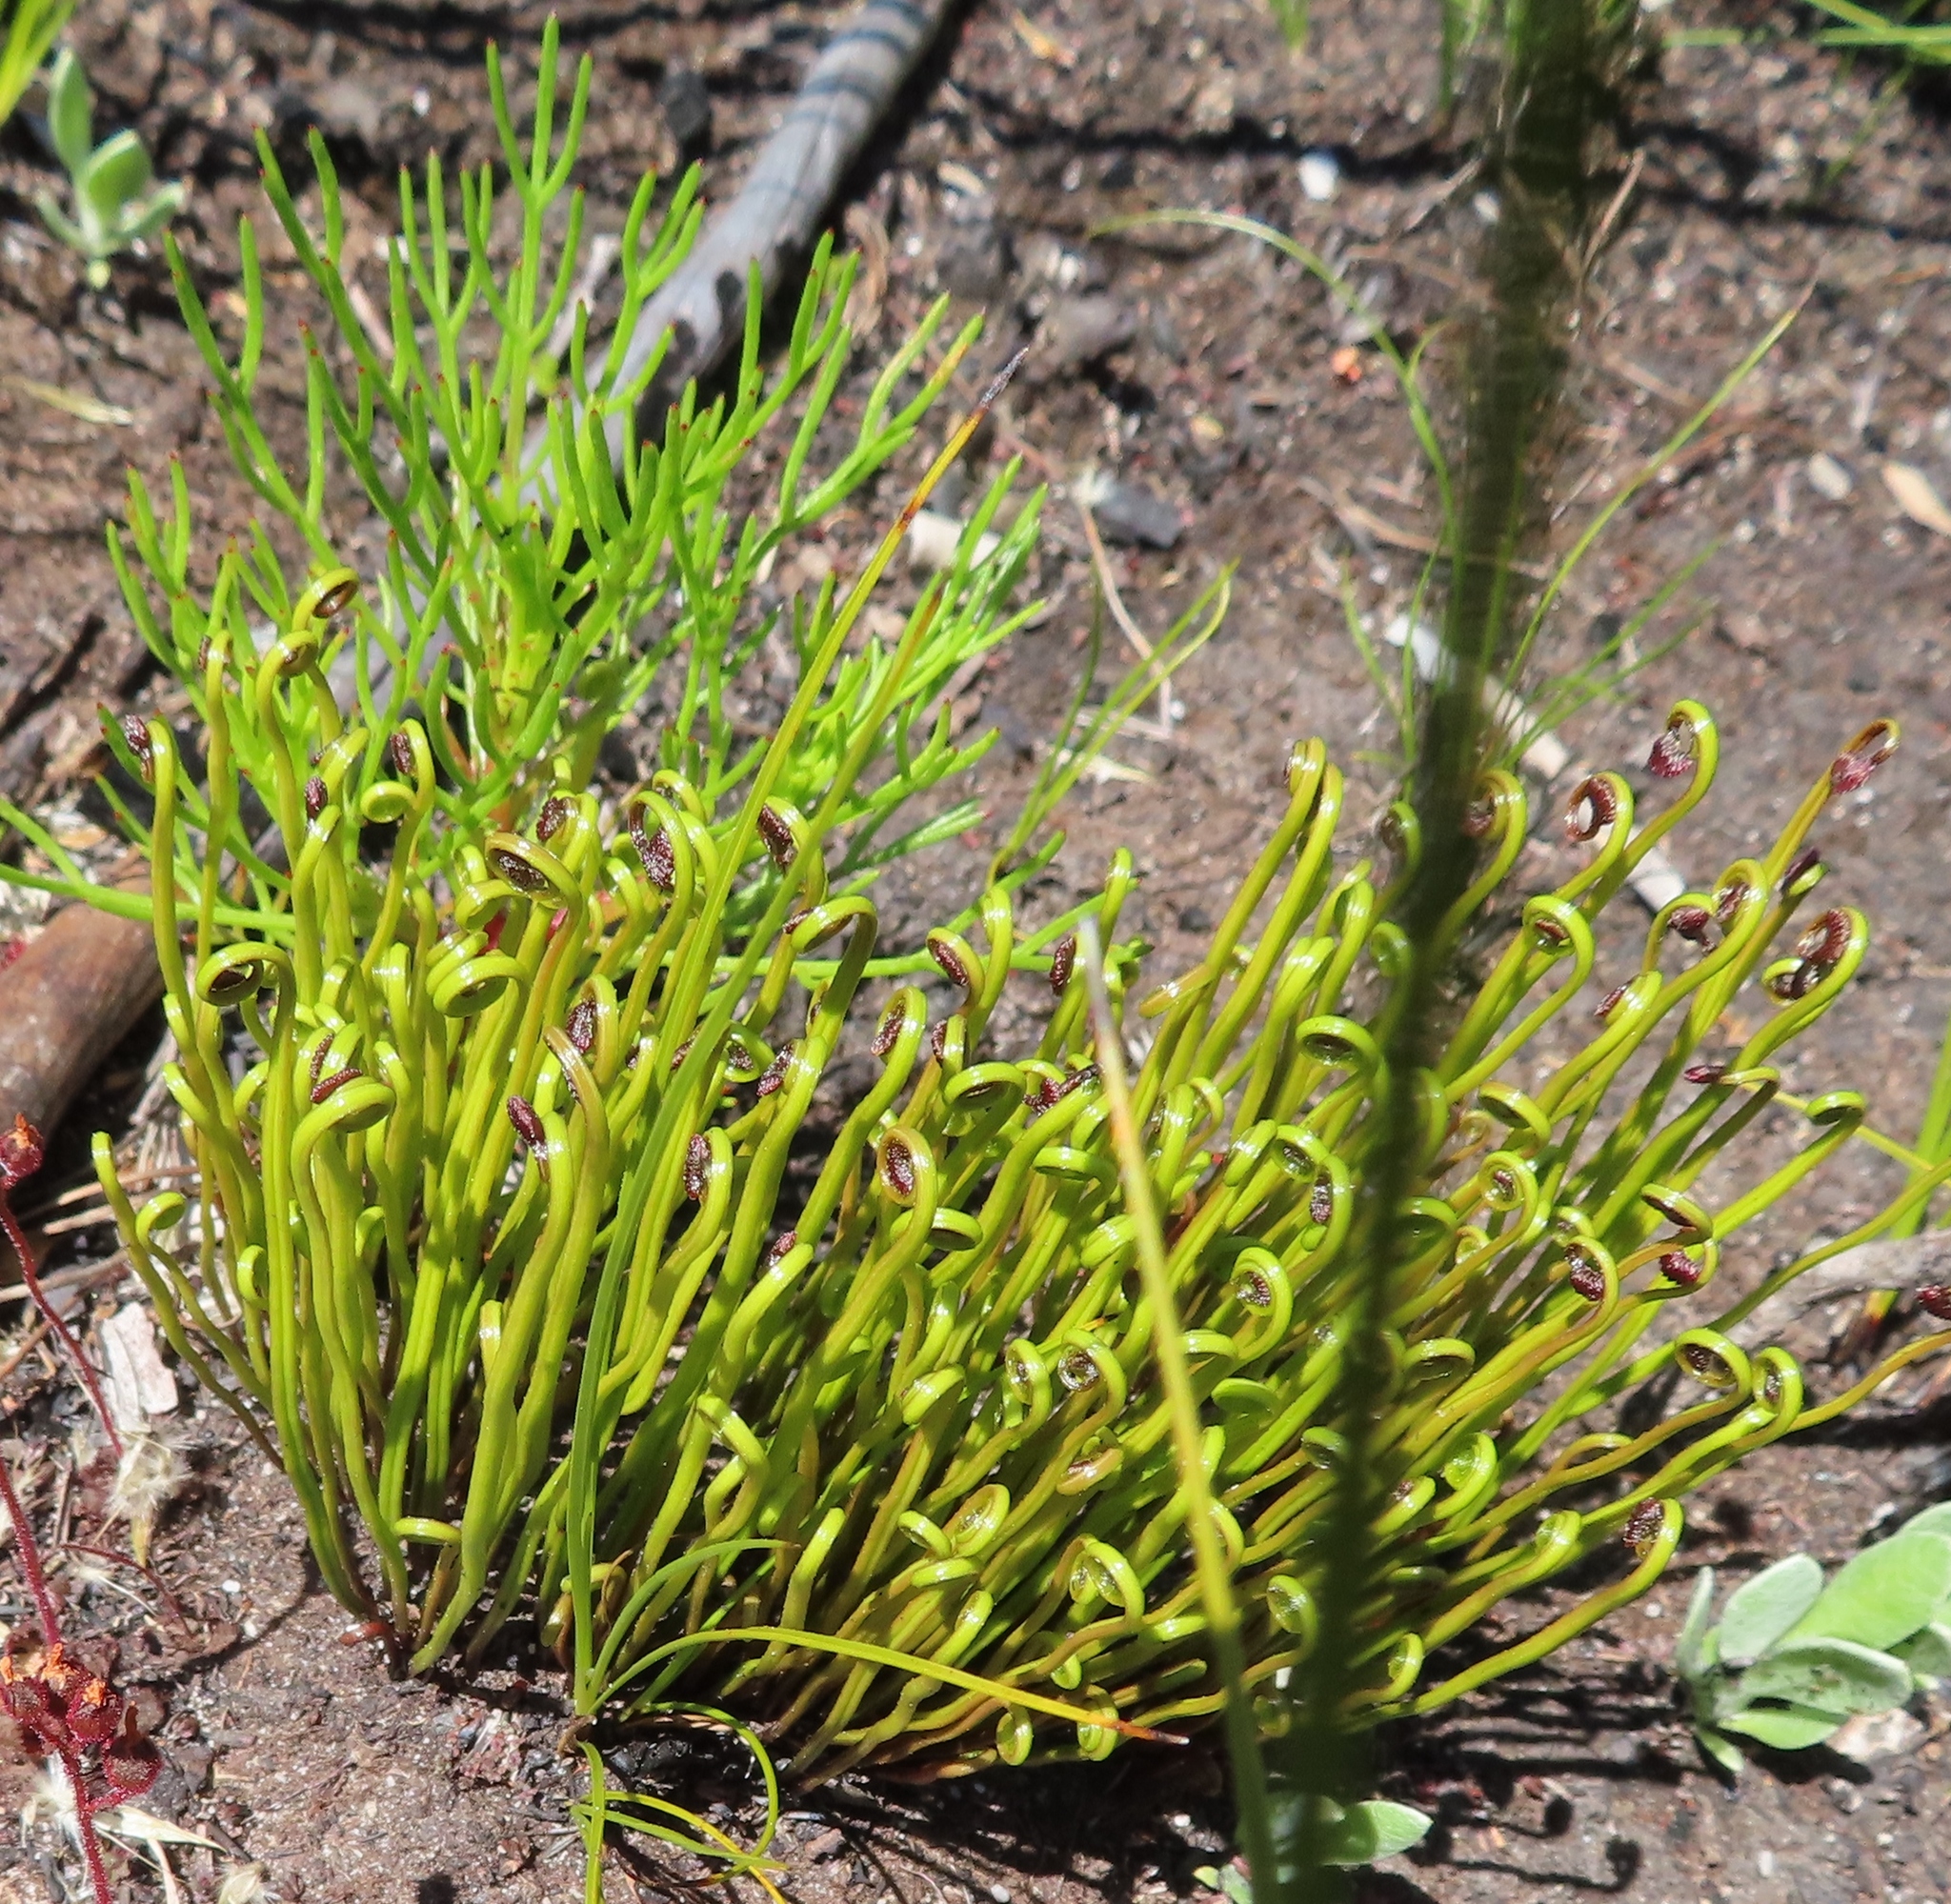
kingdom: Plantae
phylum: Tracheophyta
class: Polypodiopsida
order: Schizaeales
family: Schizaeaceae
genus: Schizaea
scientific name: Schizaea pectinata
